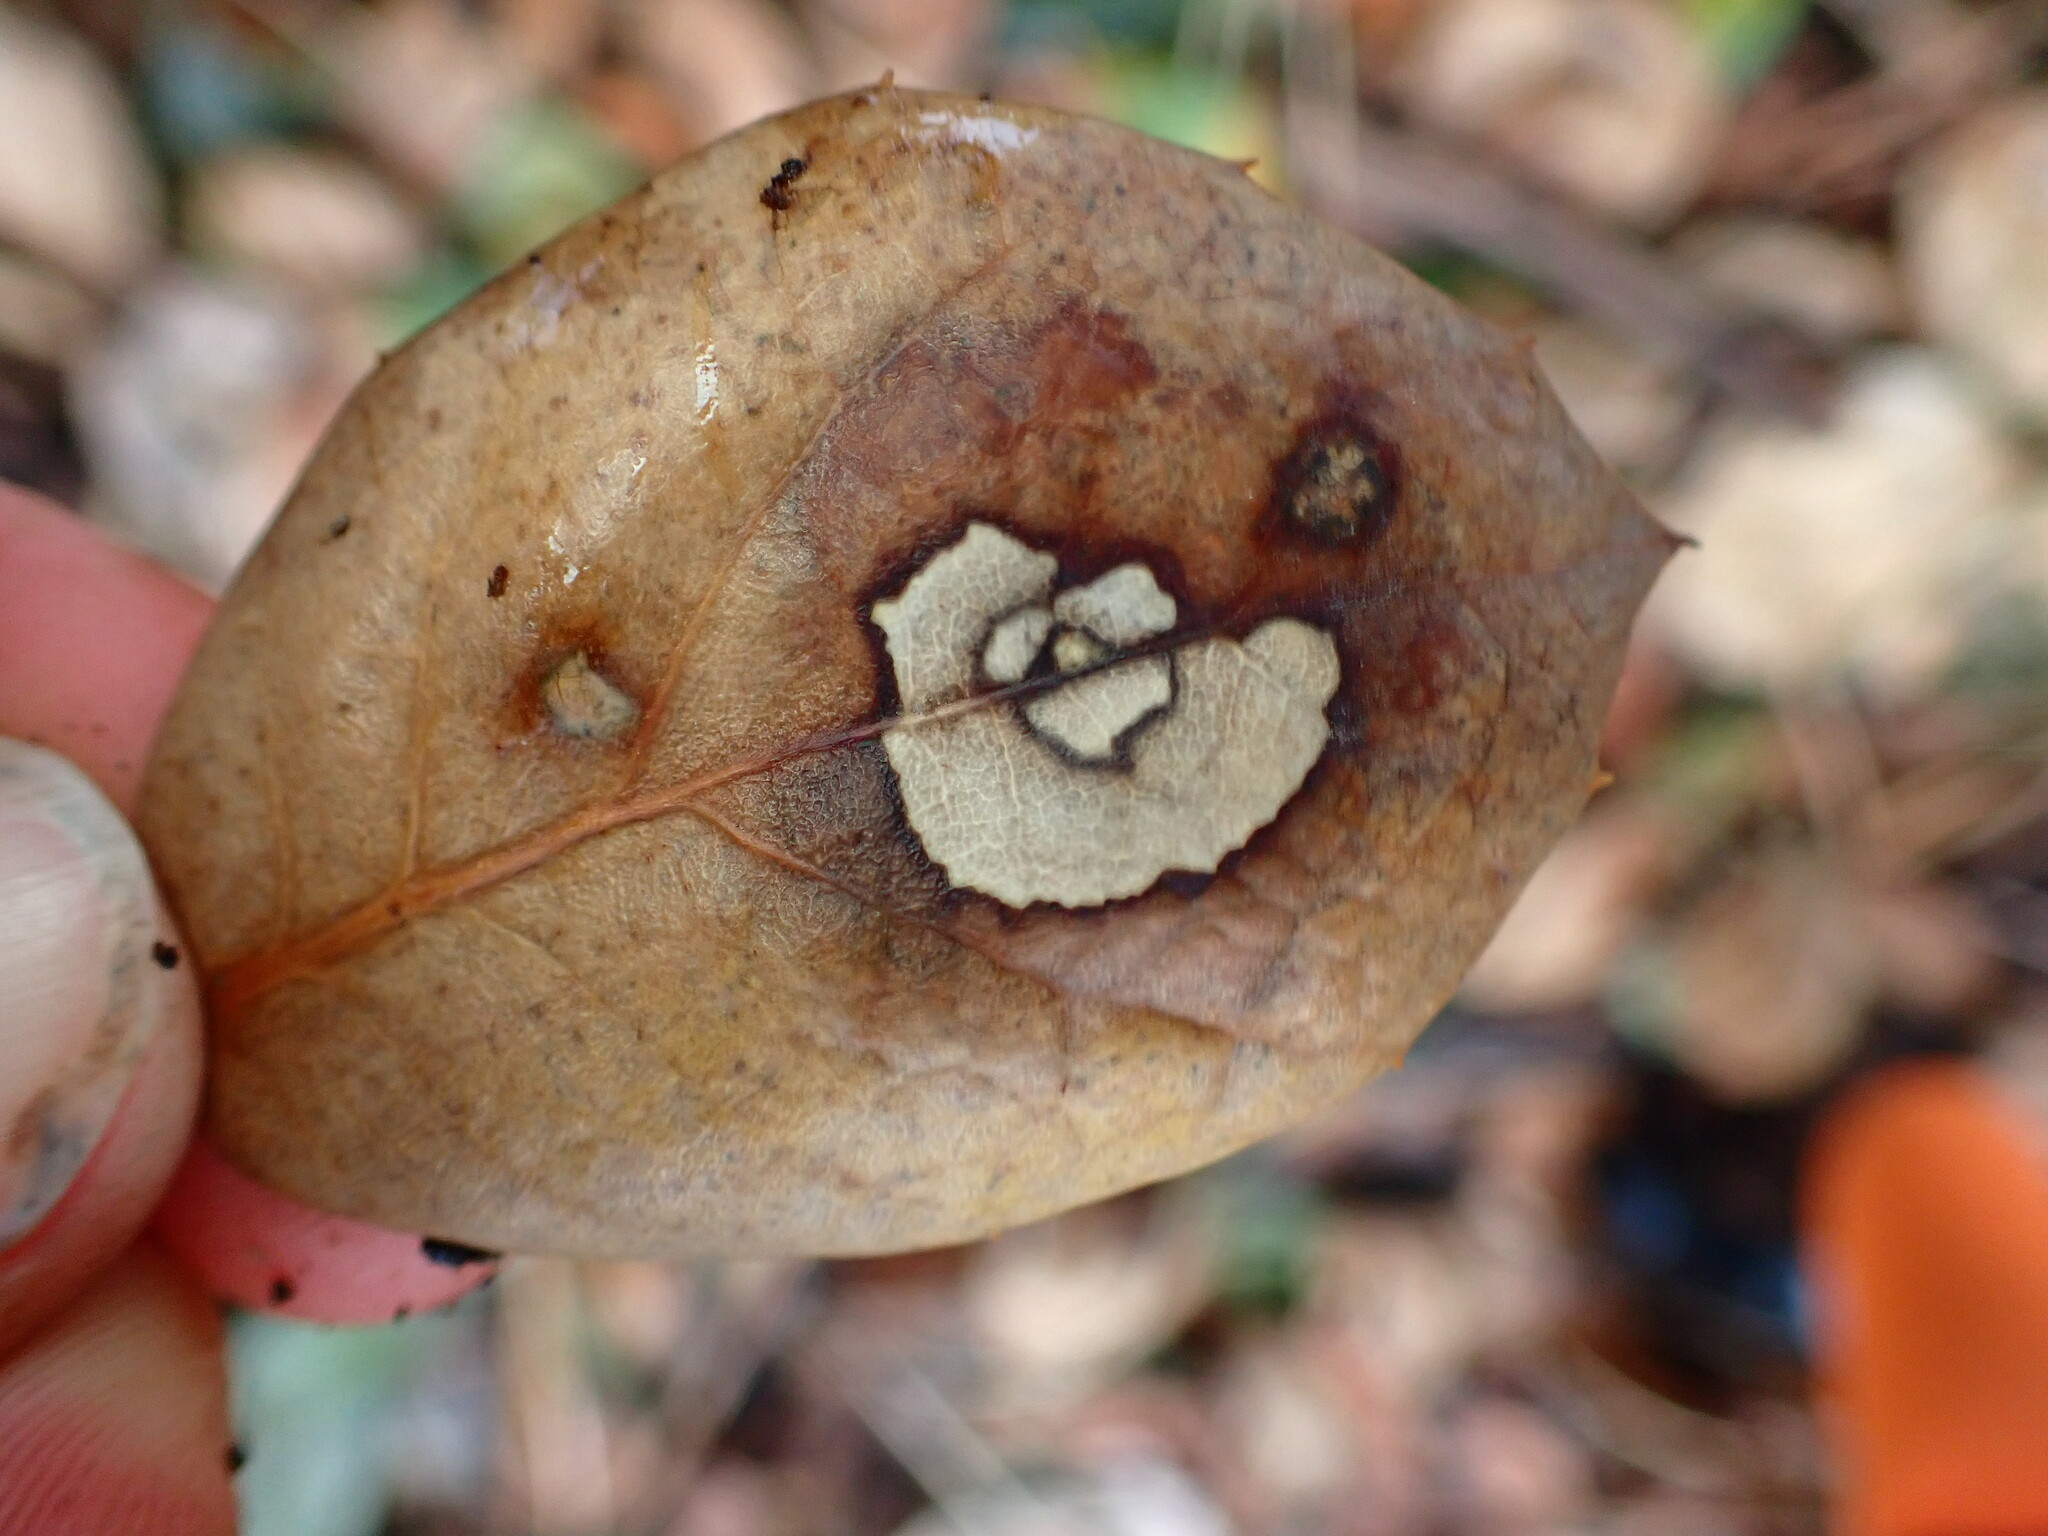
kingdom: Fungi
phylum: Ascomycota
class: Sordariomycetes
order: Diaporthales
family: Tubakiaceae
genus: Tubakia
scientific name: Tubakia californica
